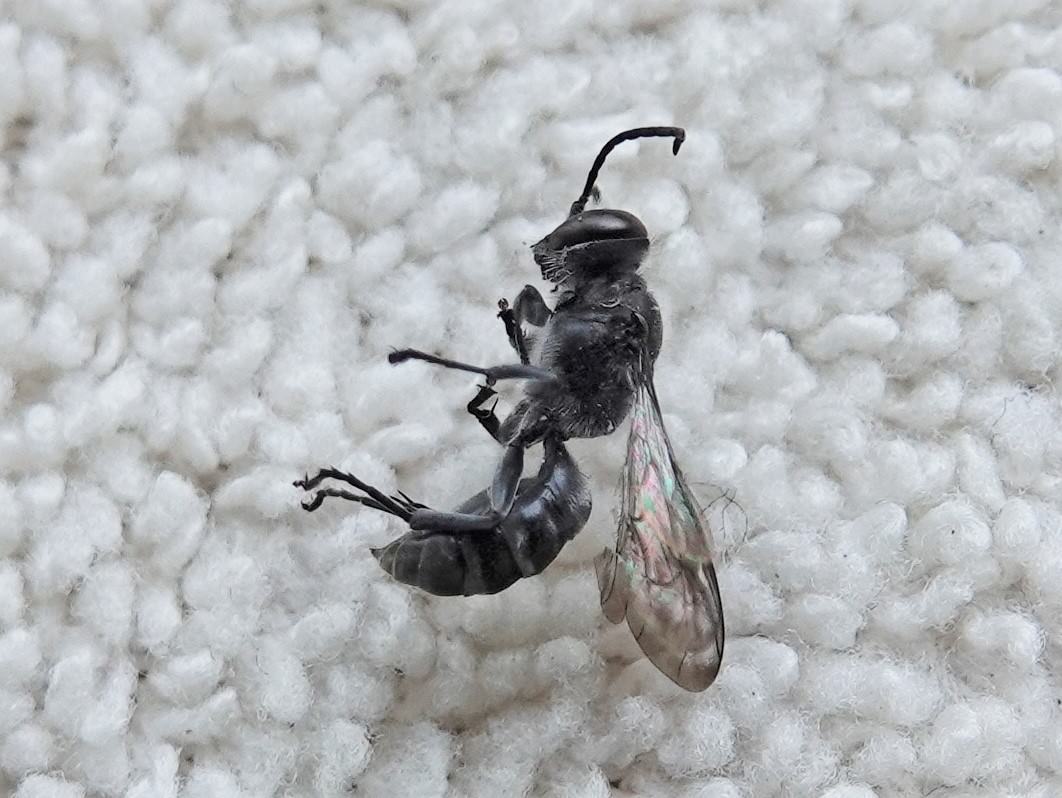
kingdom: Animalia
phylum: Arthropoda
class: Insecta
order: Hymenoptera
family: Crabronidae
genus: Pison
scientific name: Pison spinolae
